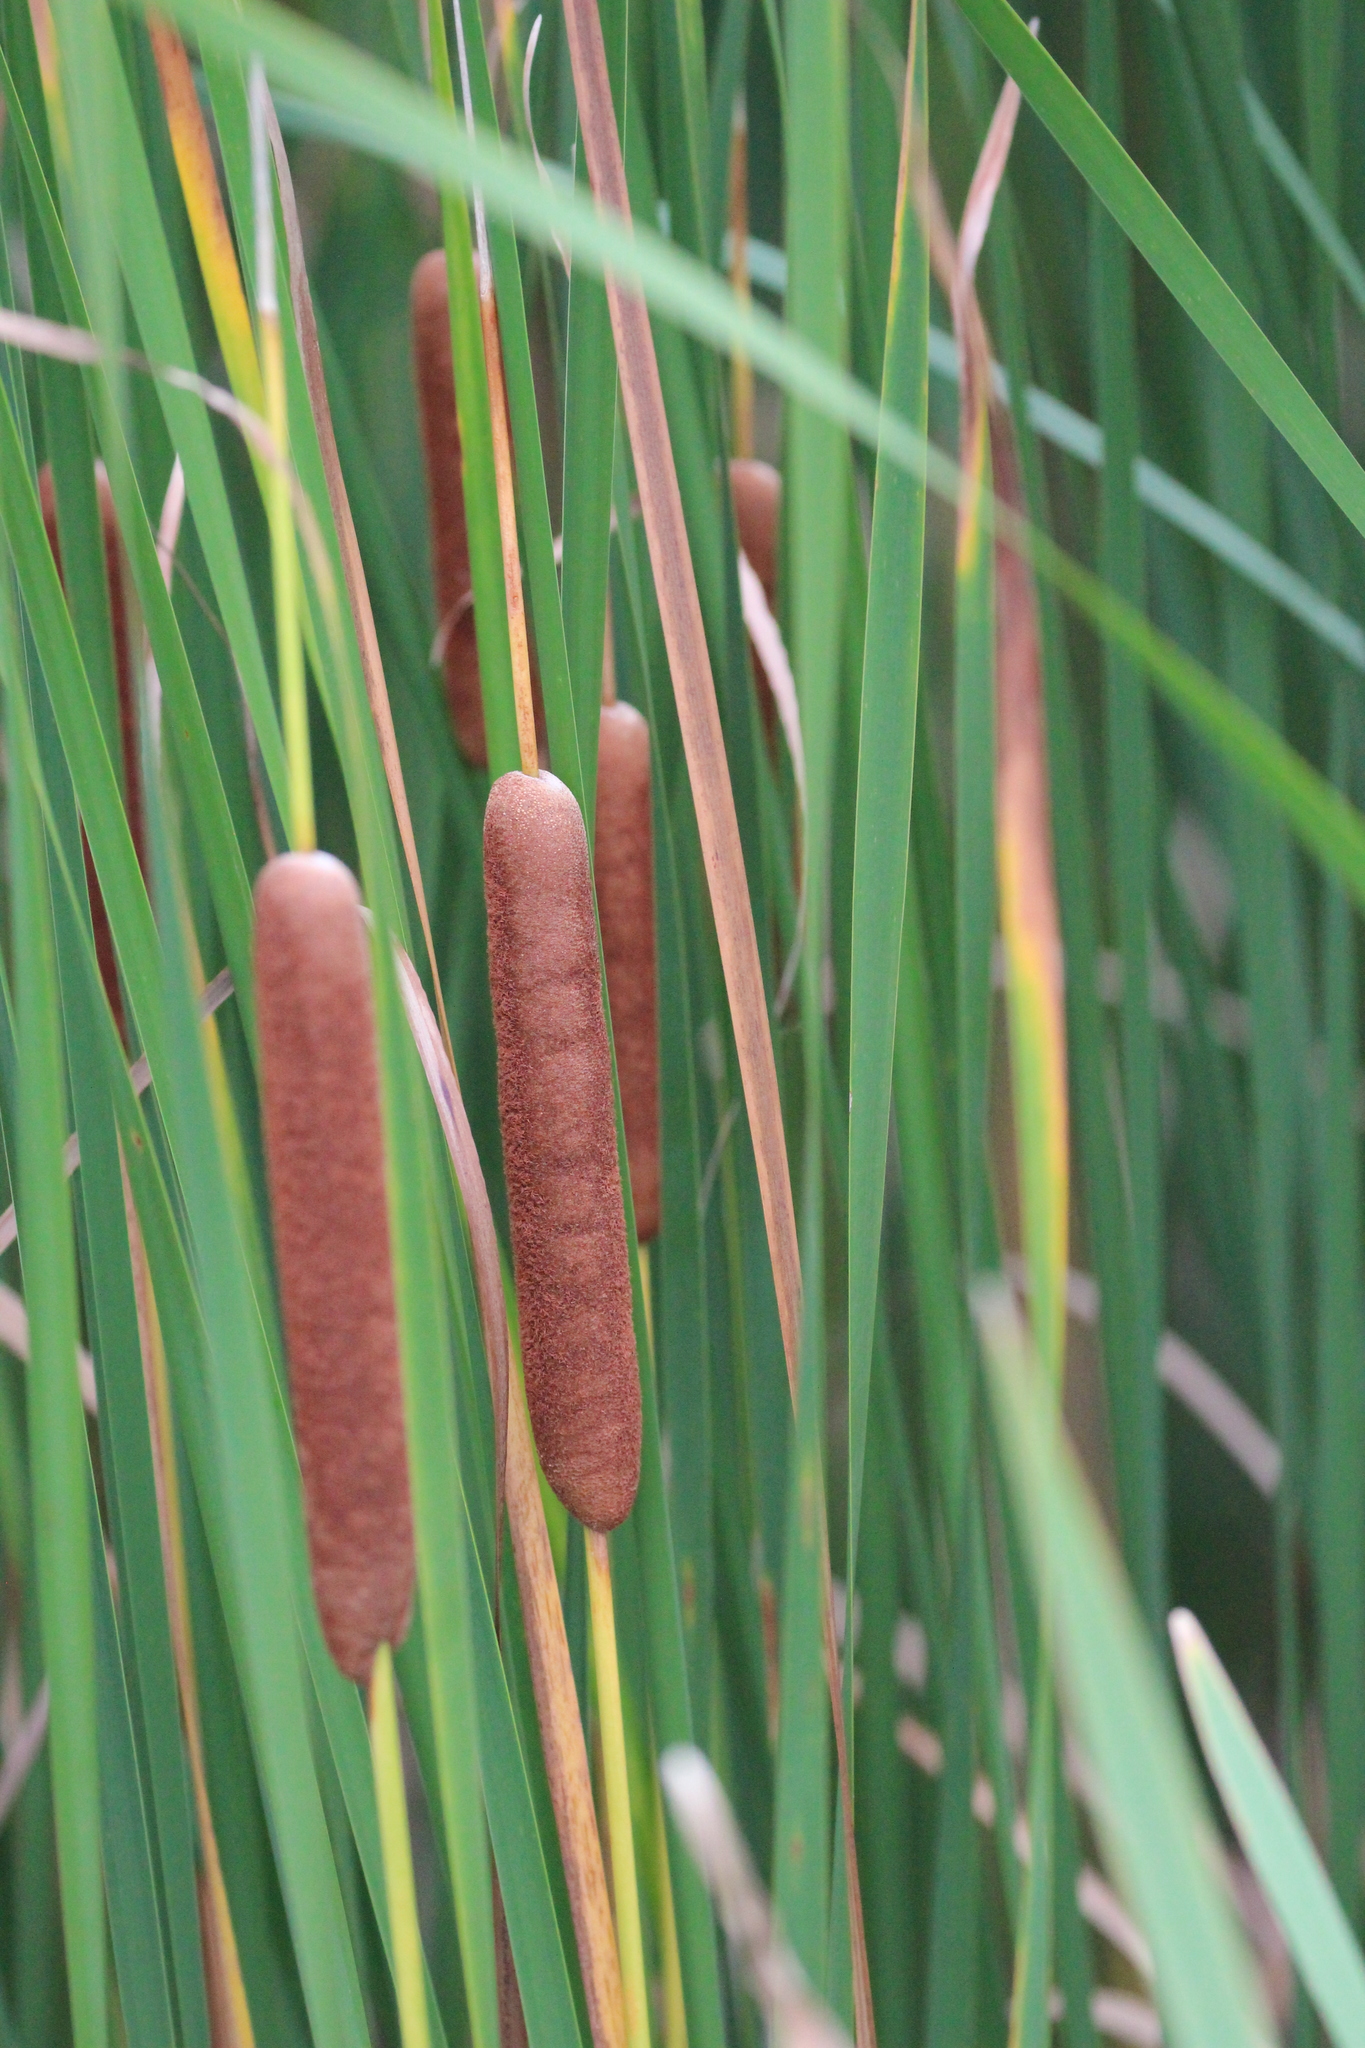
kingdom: Plantae
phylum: Tracheophyta
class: Liliopsida
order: Poales
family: Typhaceae
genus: Typha
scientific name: Typha angustifolia
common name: Lesser bulrush
